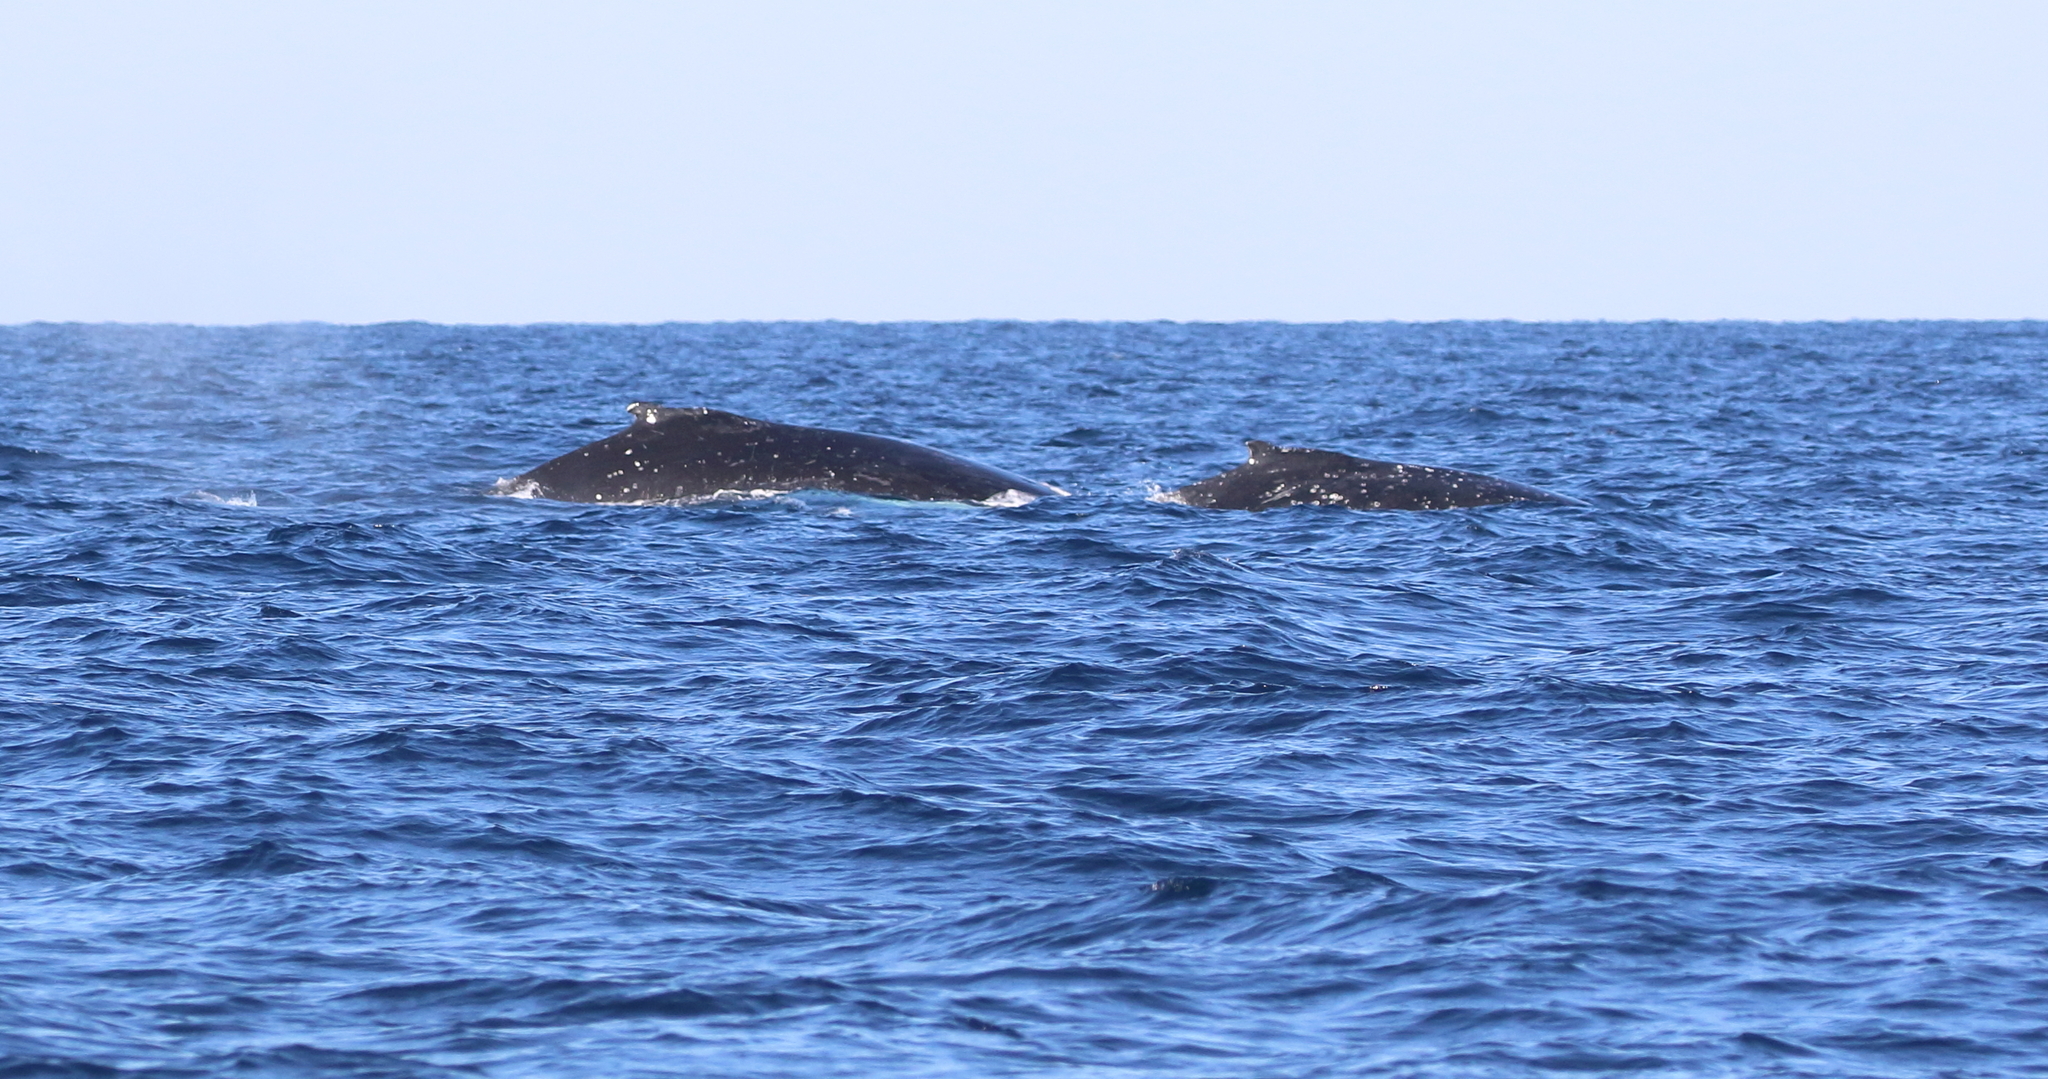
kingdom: Animalia
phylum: Chordata
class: Mammalia
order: Cetacea
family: Balaenopteridae
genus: Megaptera
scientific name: Megaptera novaeangliae
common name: Humpback whale
